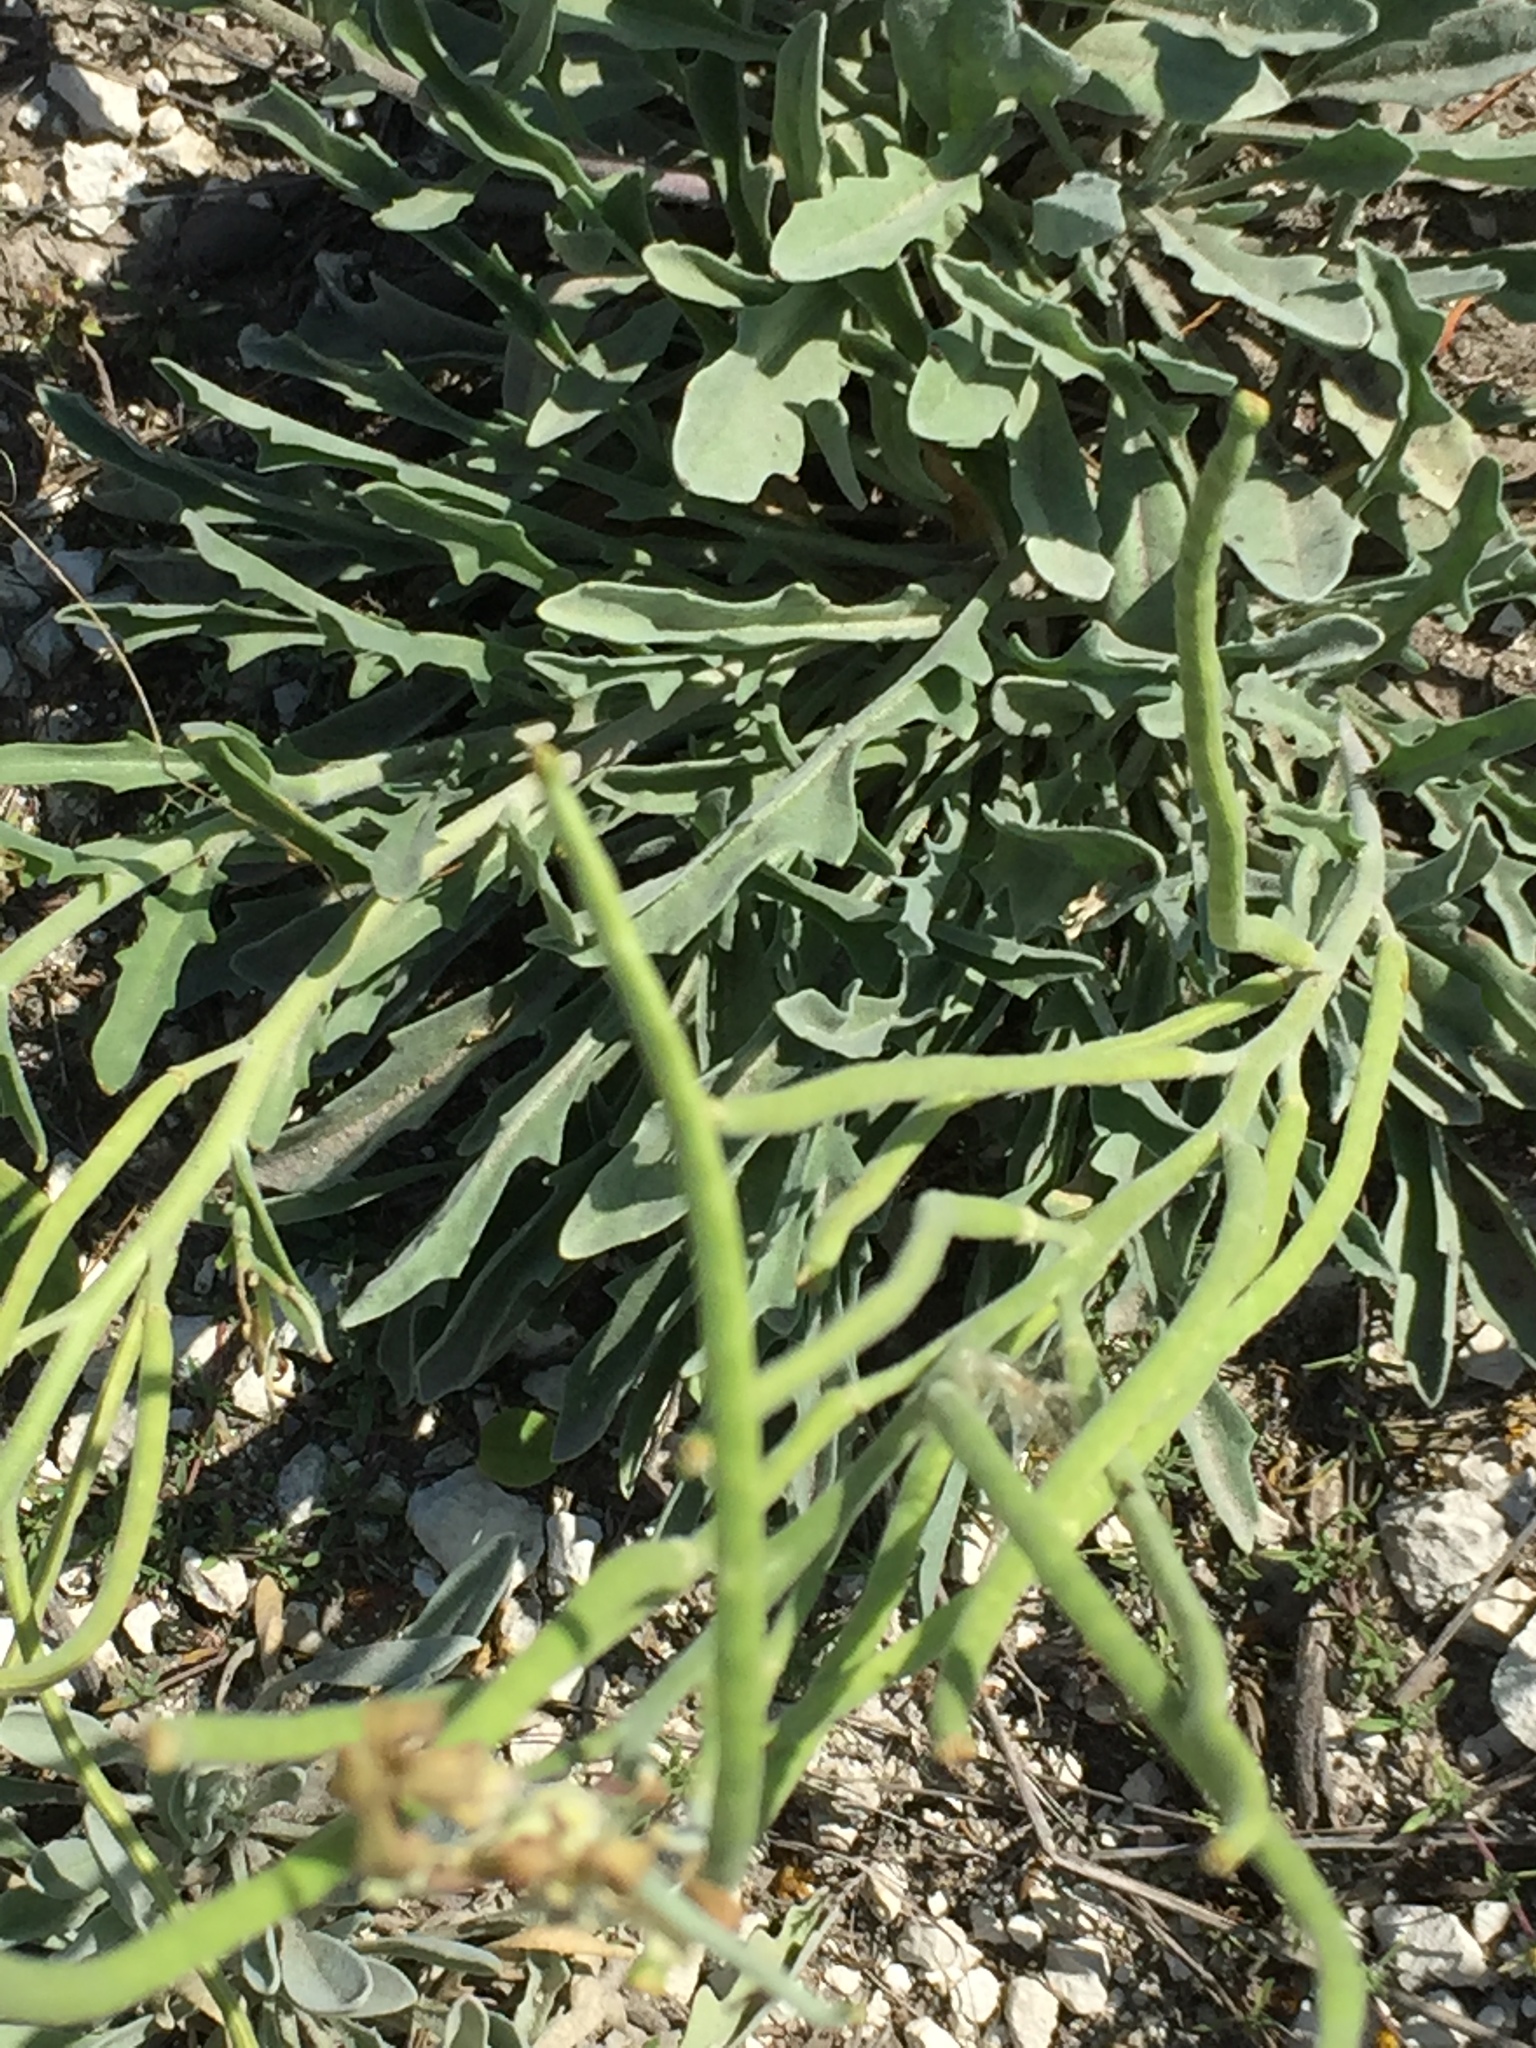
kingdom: Plantae
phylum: Tracheophyta
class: Magnoliopsida
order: Brassicales
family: Brassicaceae
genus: Matthiola
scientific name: Matthiola fragrans
